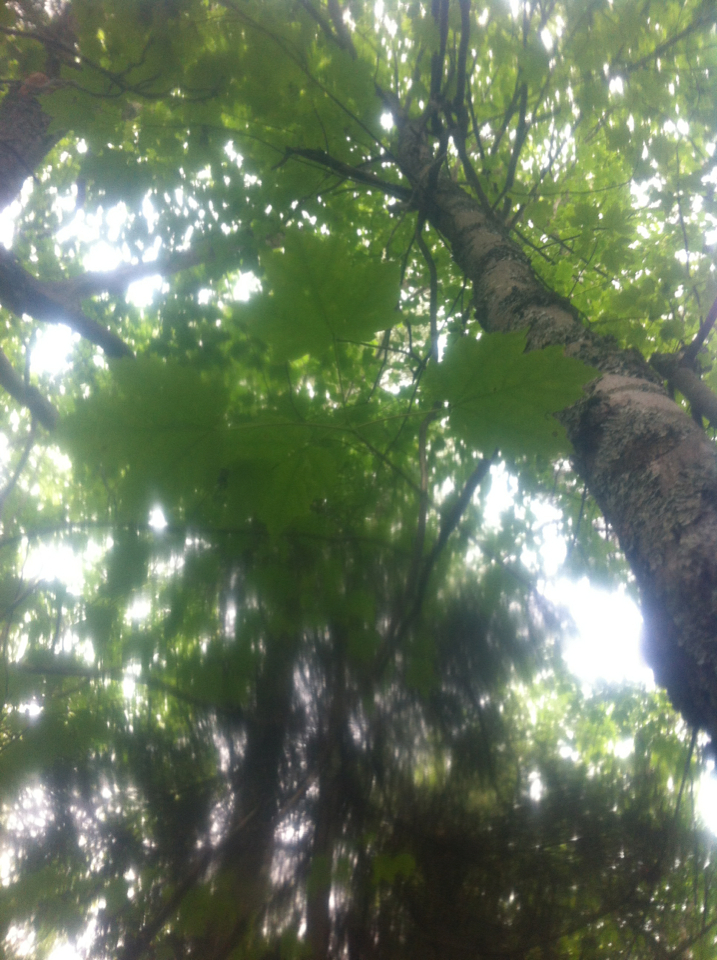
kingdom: Plantae
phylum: Tracheophyta
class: Magnoliopsida
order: Sapindales
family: Sapindaceae
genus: Acer
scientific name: Acer rubrum
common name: Red maple
